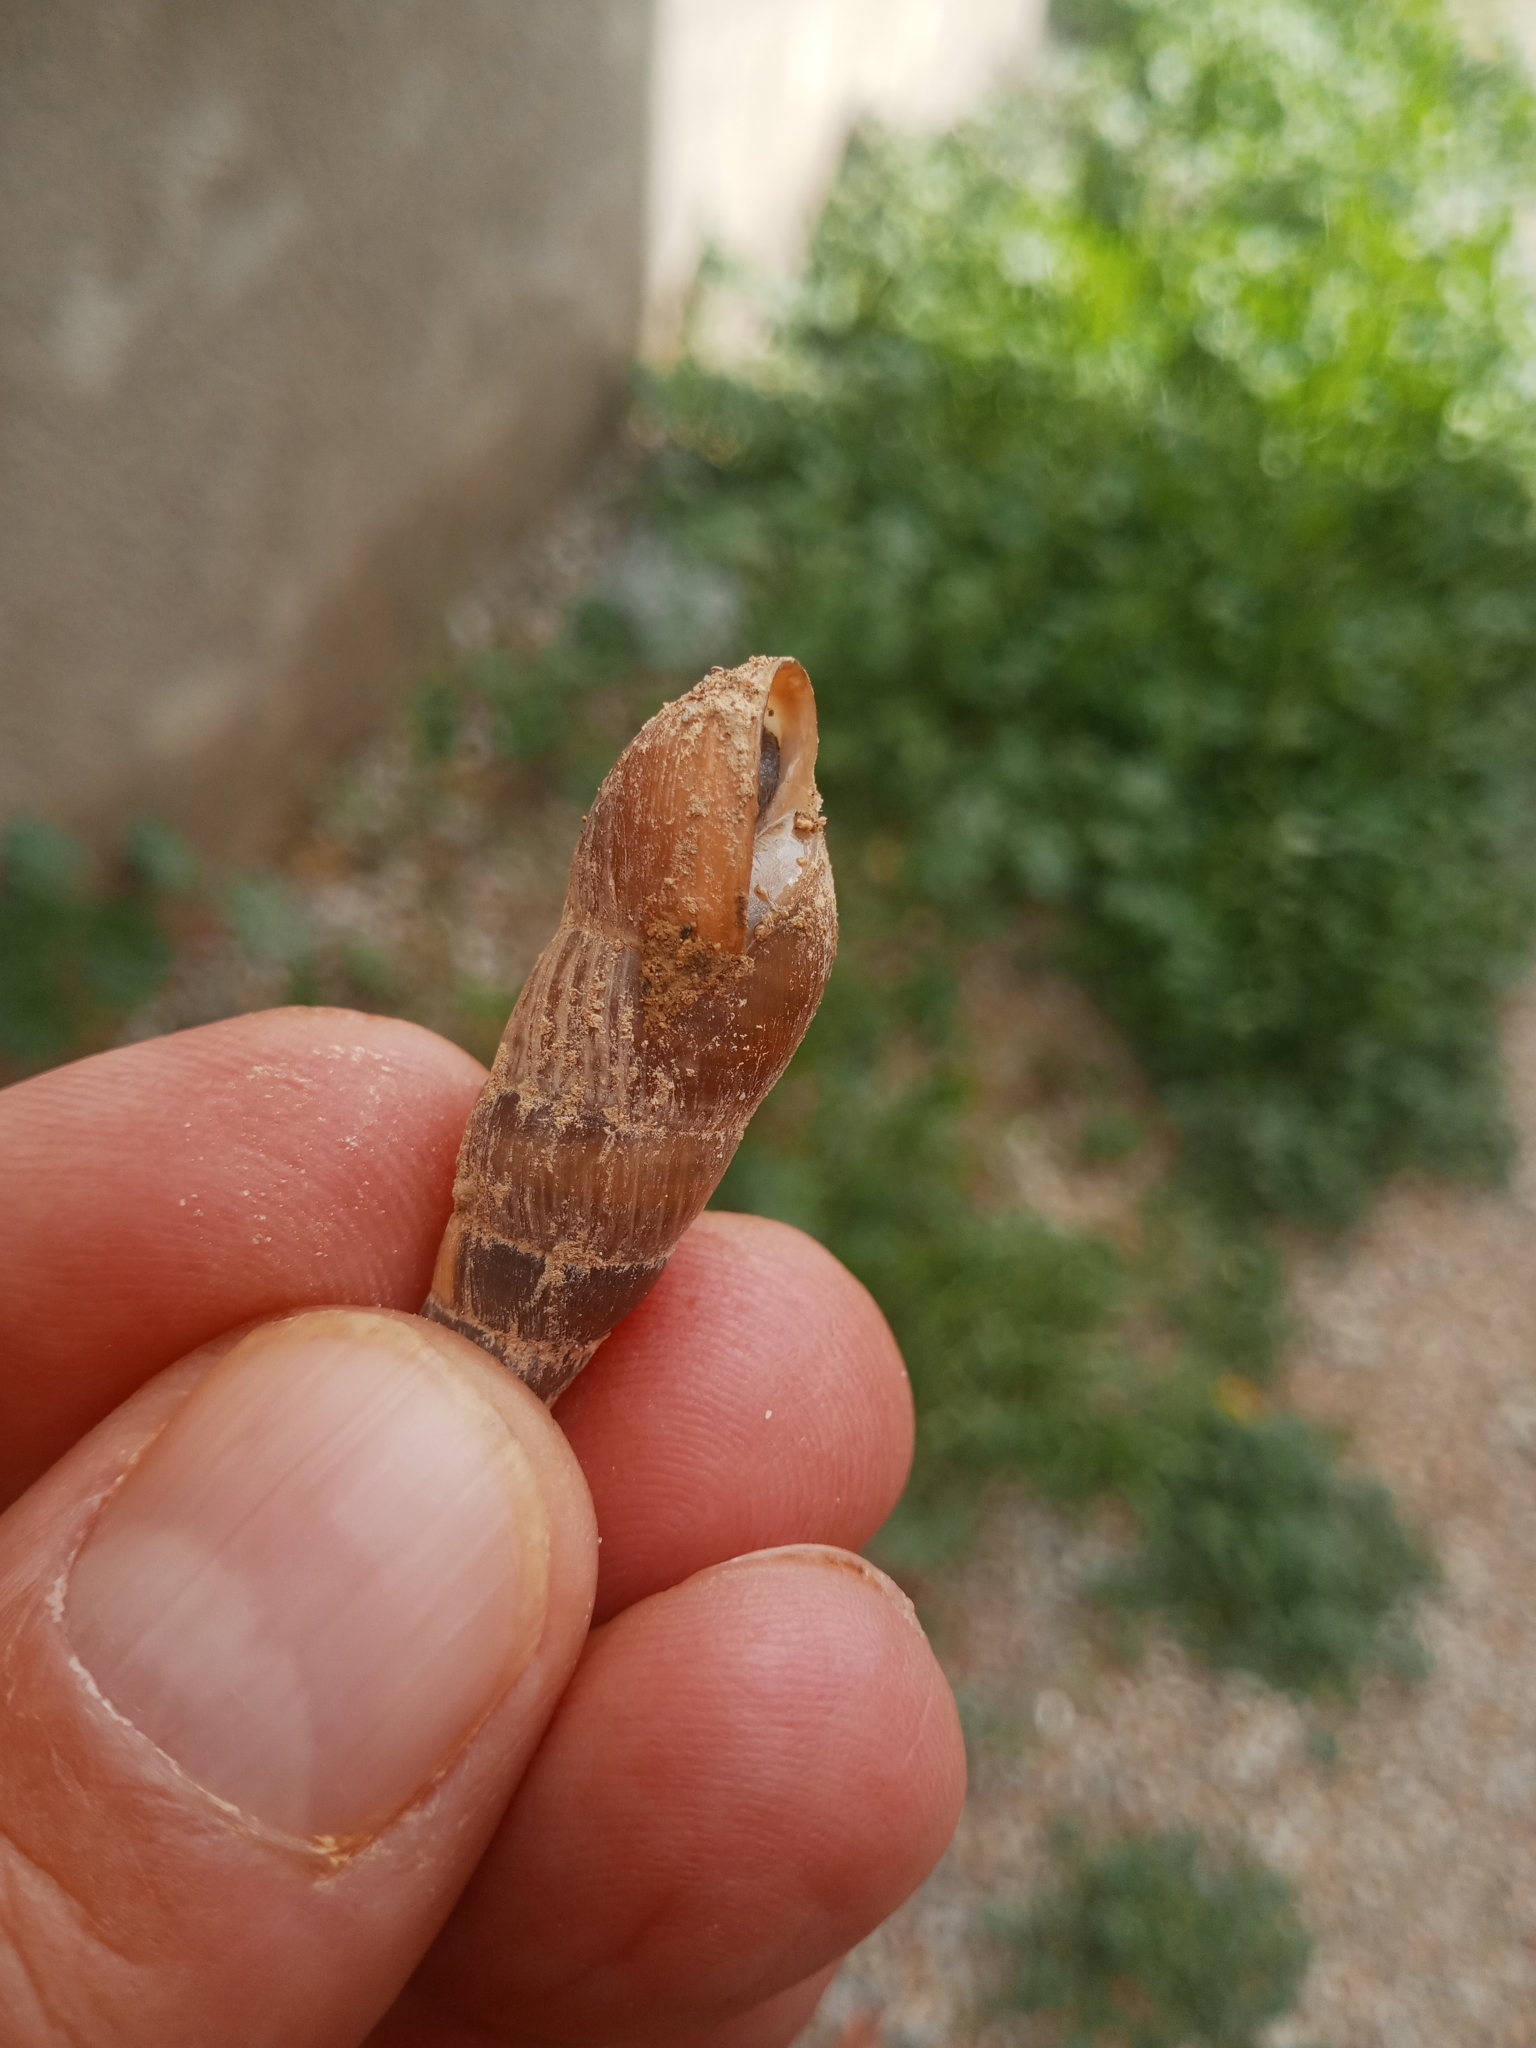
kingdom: Animalia
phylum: Mollusca
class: Gastropoda
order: Stylommatophora
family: Achatinidae
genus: Rumina
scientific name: Rumina decollata
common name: Decollate snail
